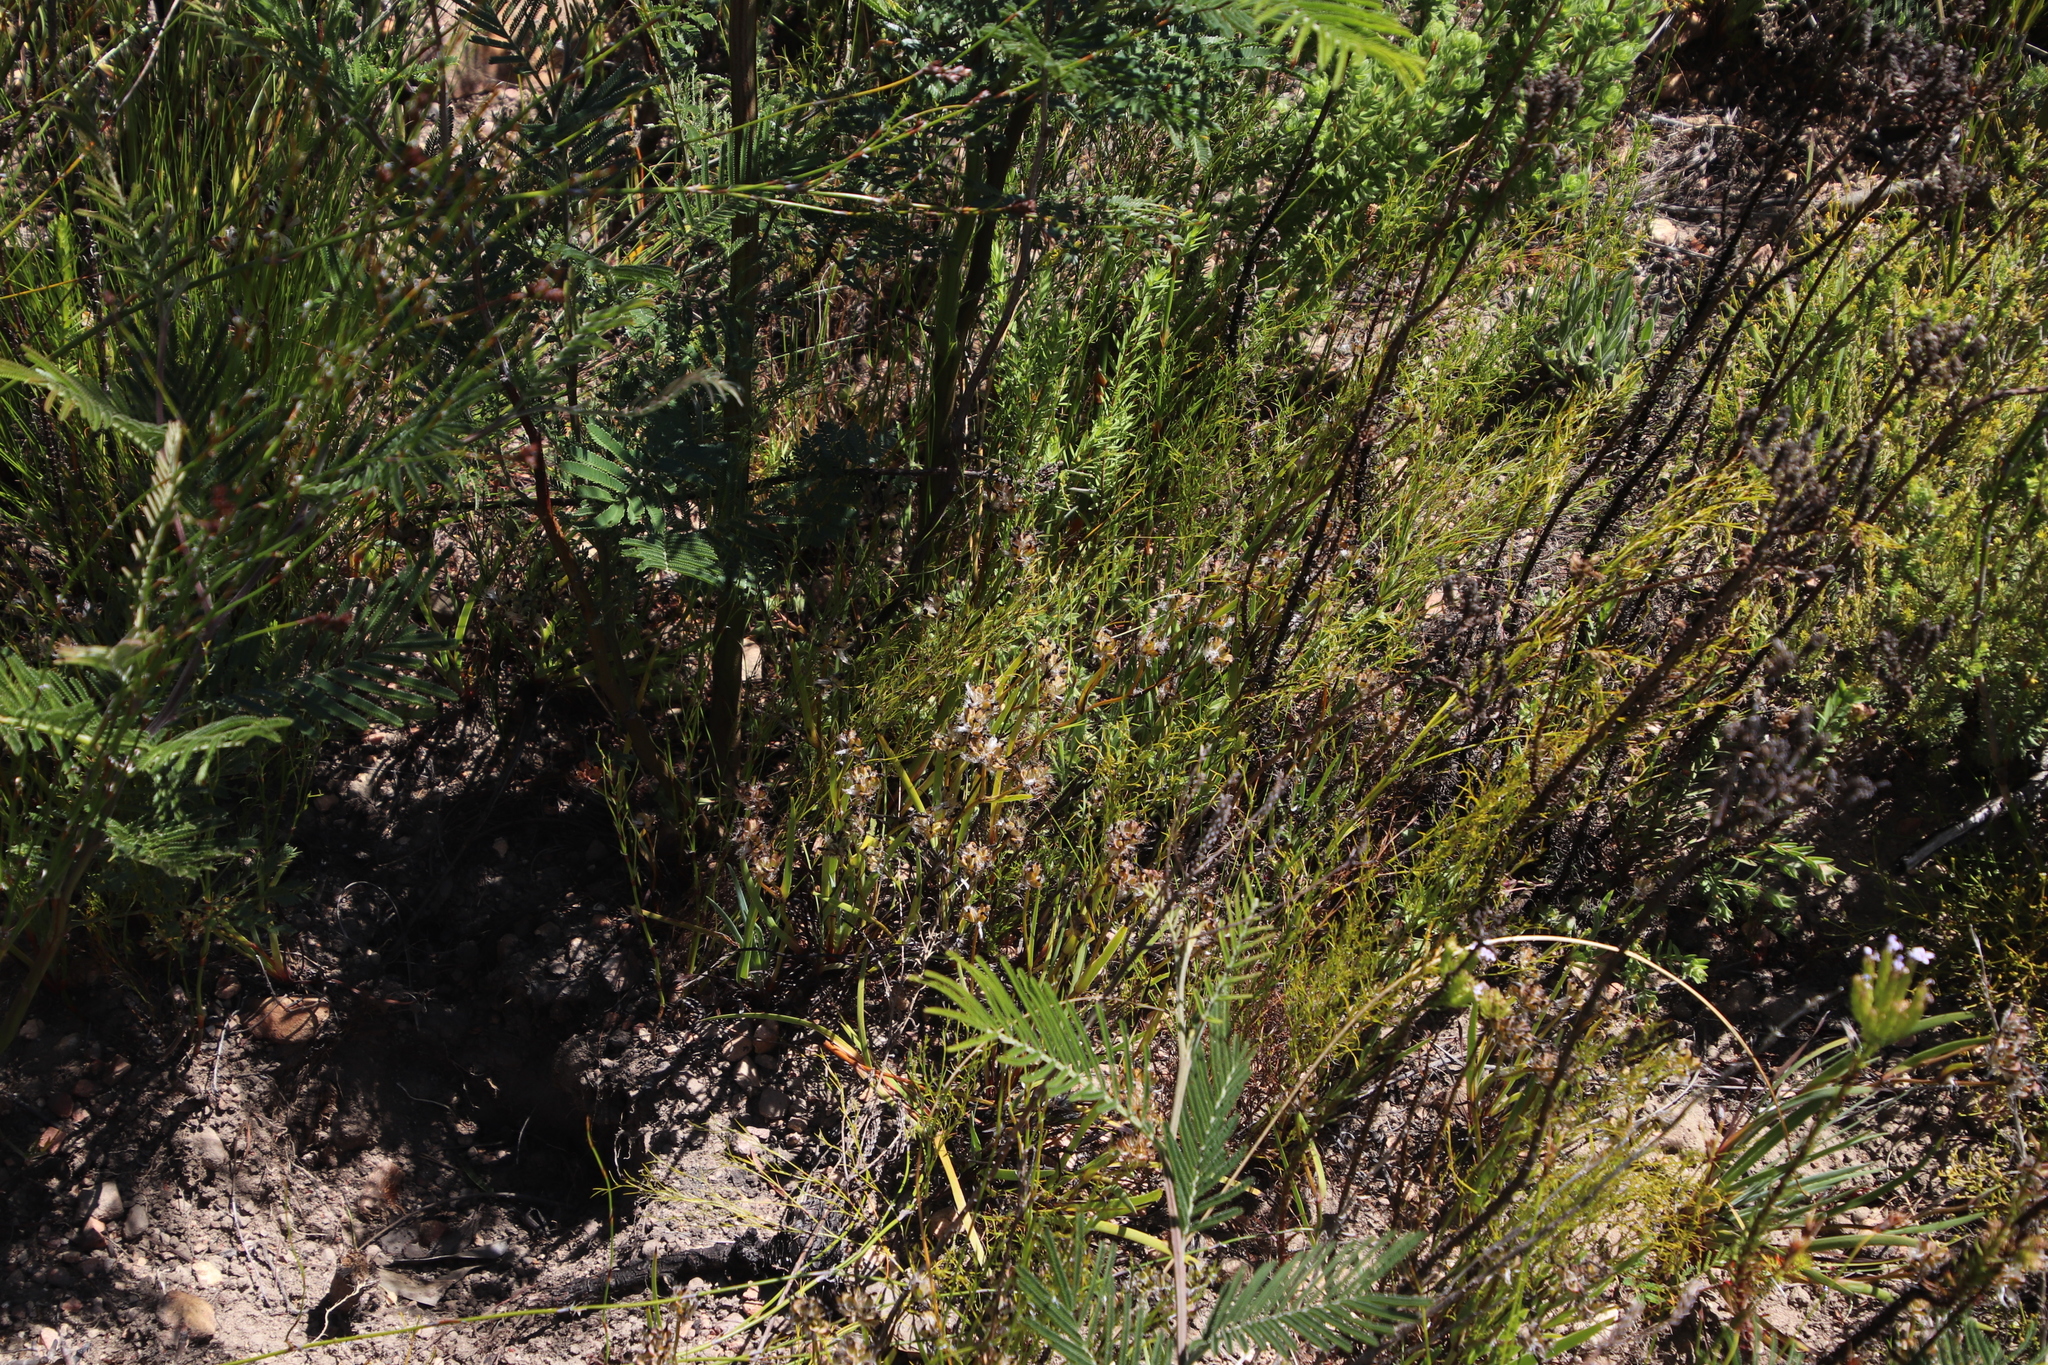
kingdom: Plantae
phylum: Tracheophyta
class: Liliopsida
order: Asparagales
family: Iridaceae
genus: Aristea
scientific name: Aristea africana
